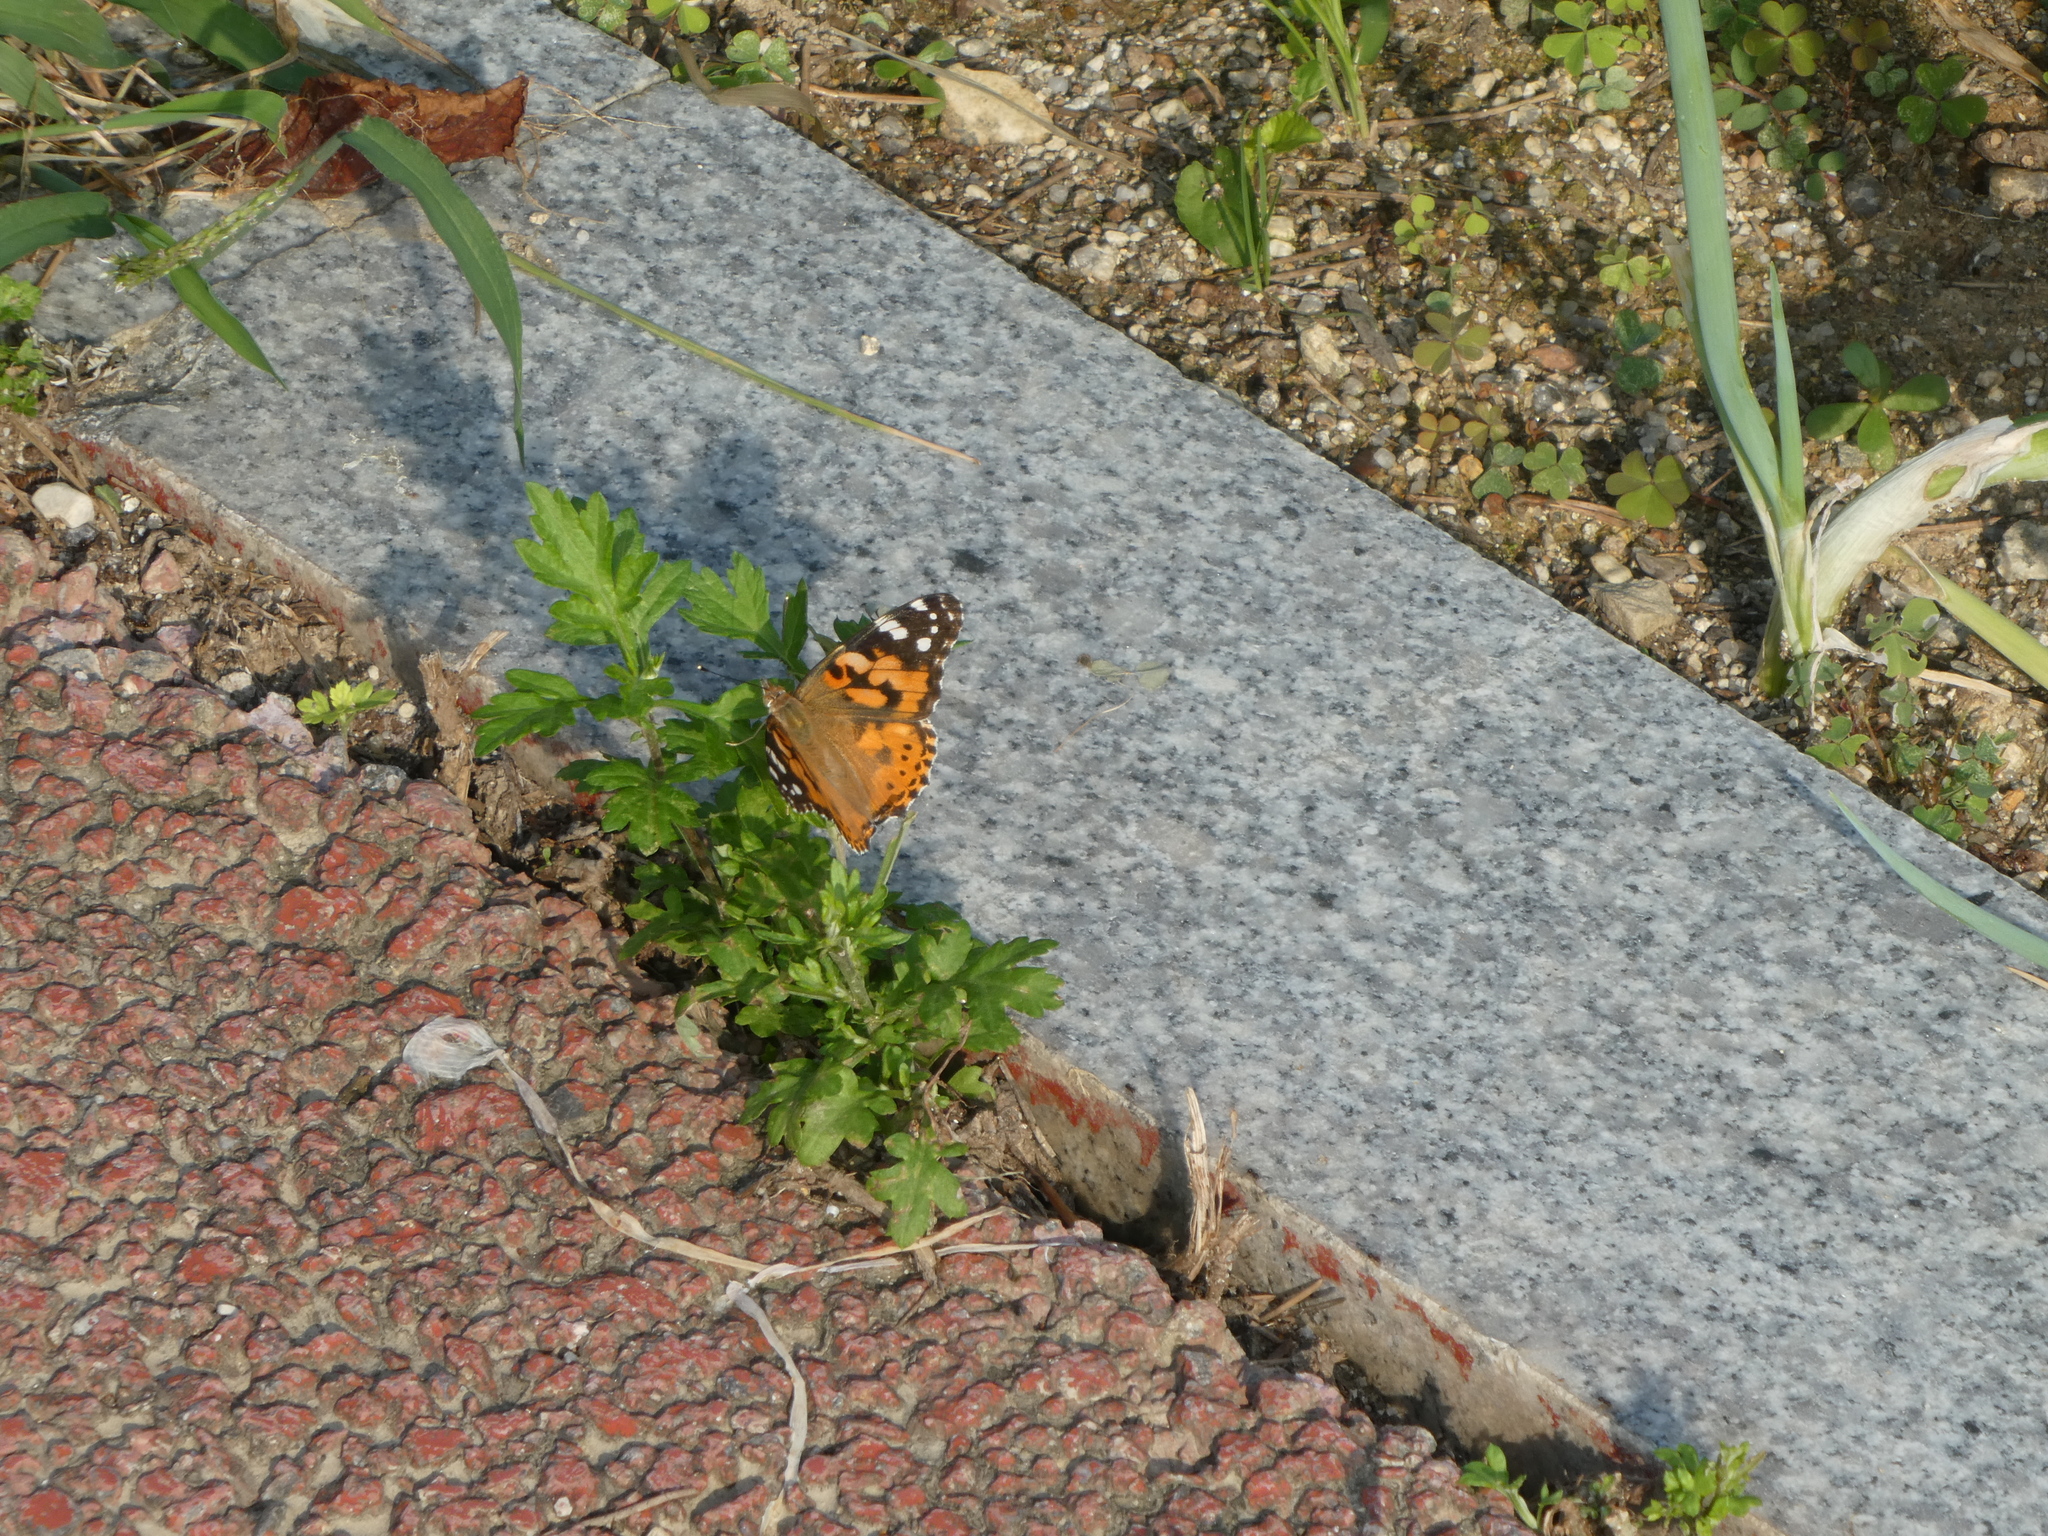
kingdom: Animalia
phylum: Arthropoda
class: Insecta
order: Lepidoptera
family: Nymphalidae
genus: Vanessa
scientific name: Vanessa cardui
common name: Painted lady
